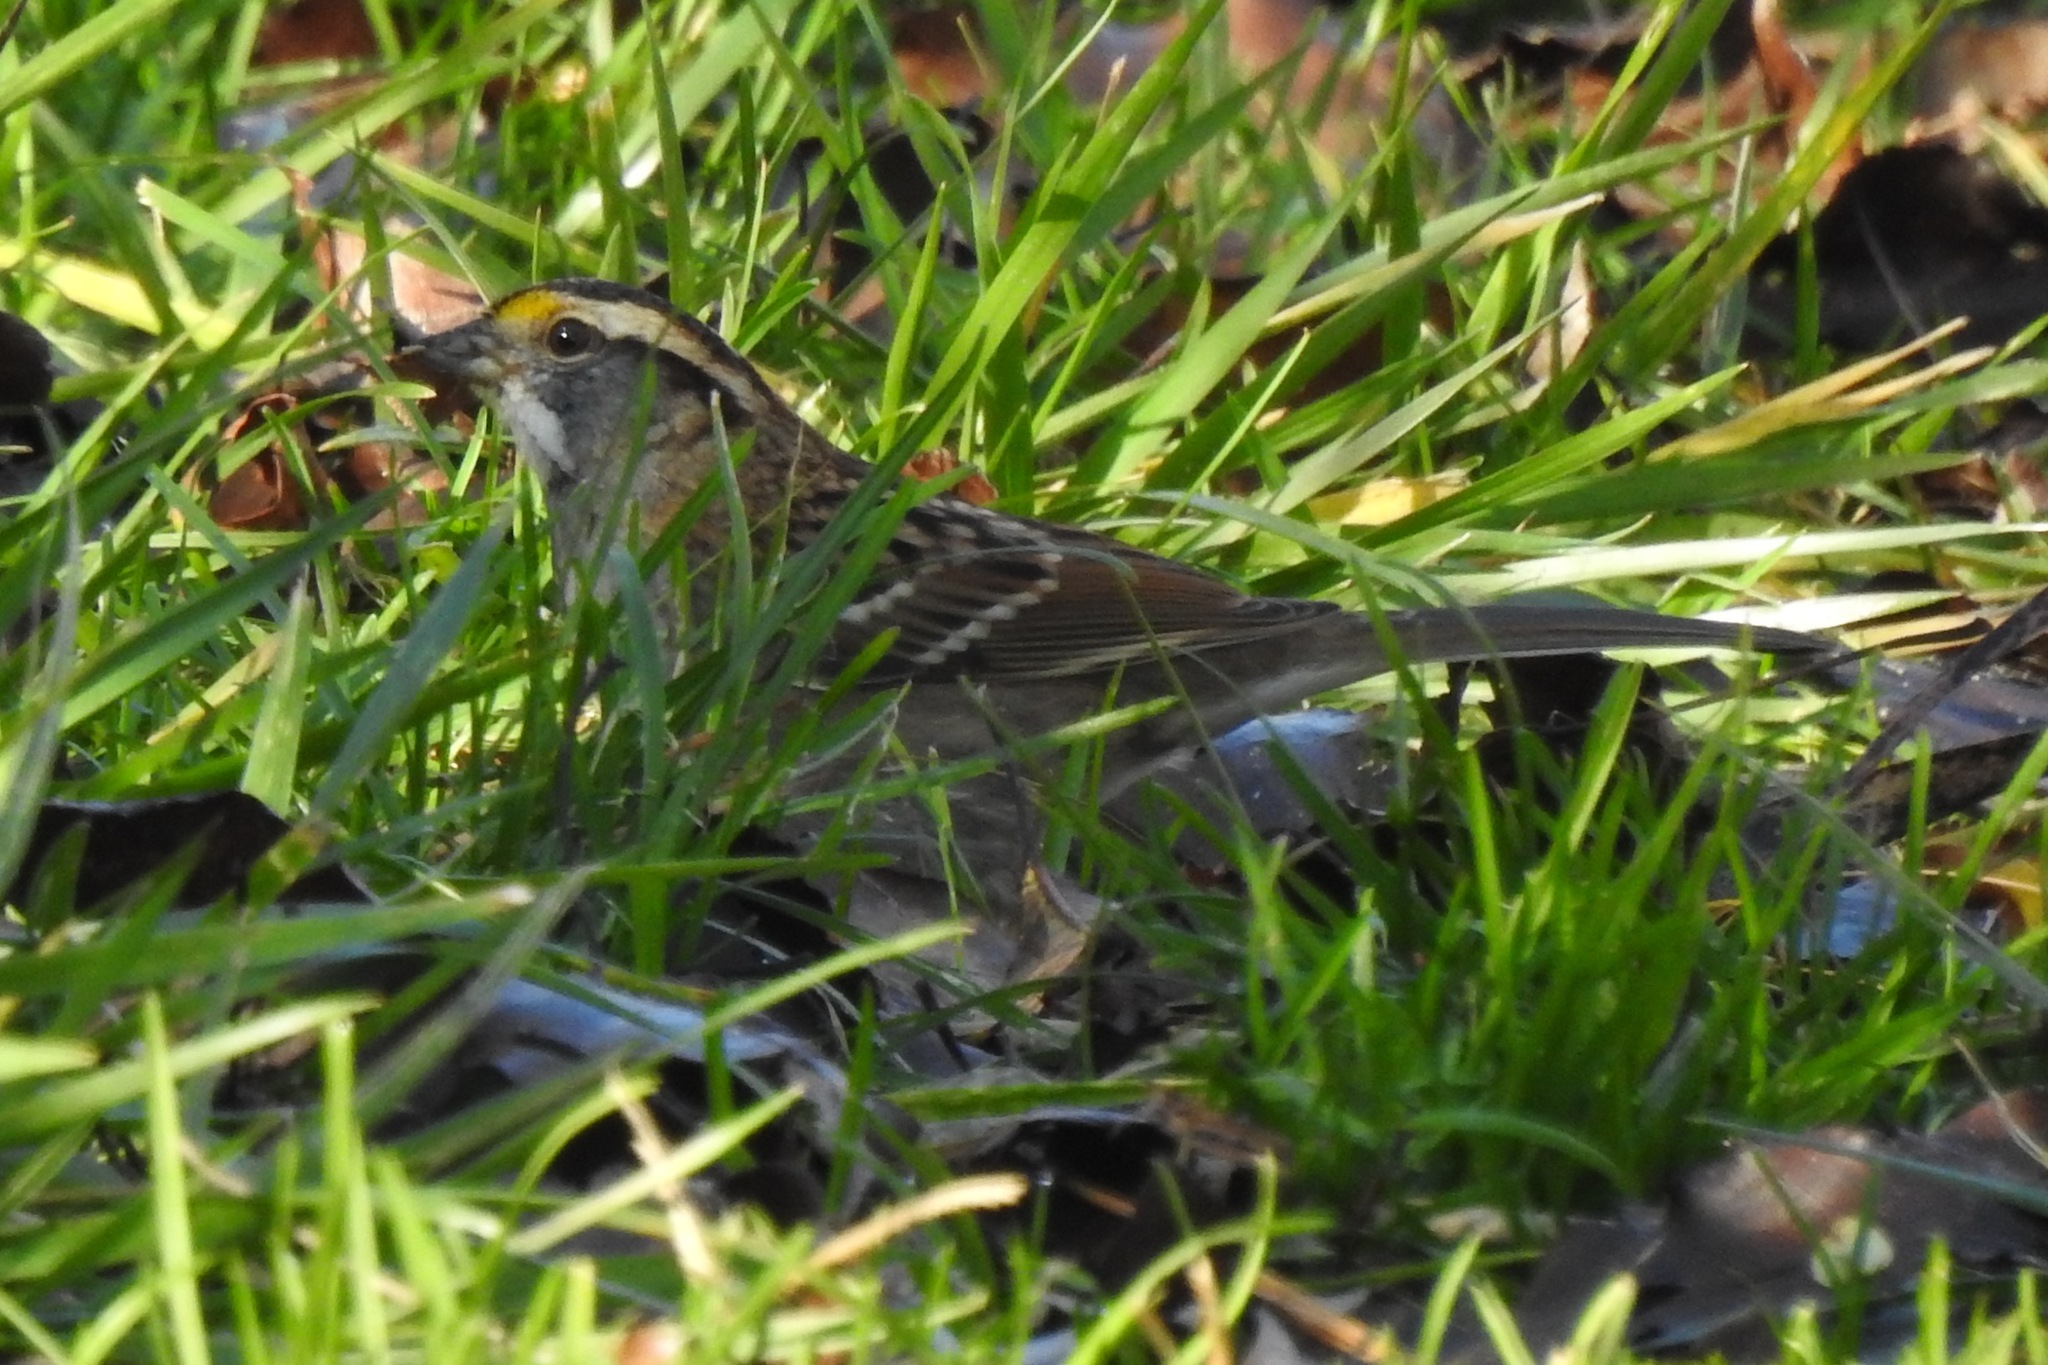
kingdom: Animalia
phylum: Chordata
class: Aves
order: Passeriformes
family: Passerellidae
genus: Zonotrichia
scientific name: Zonotrichia albicollis
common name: White-throated sparrow
